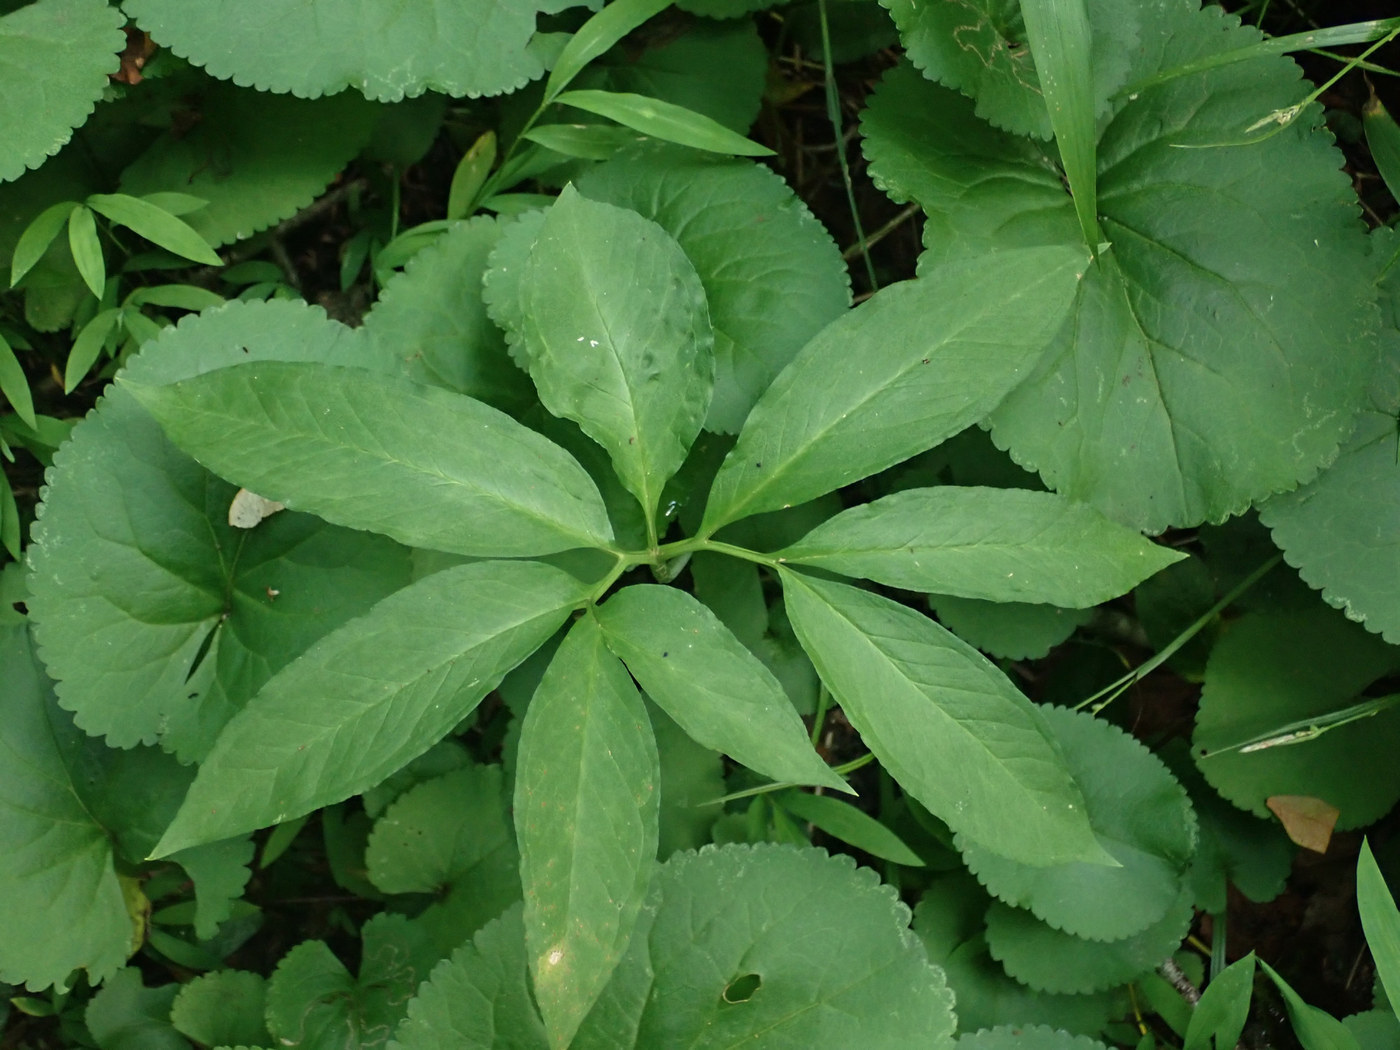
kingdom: Plantae
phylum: Tracheophyta
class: Liliopsida
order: Alismatales
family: Araceae
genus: Arisaema
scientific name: Arisaema dracontium
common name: Dragon-arum
